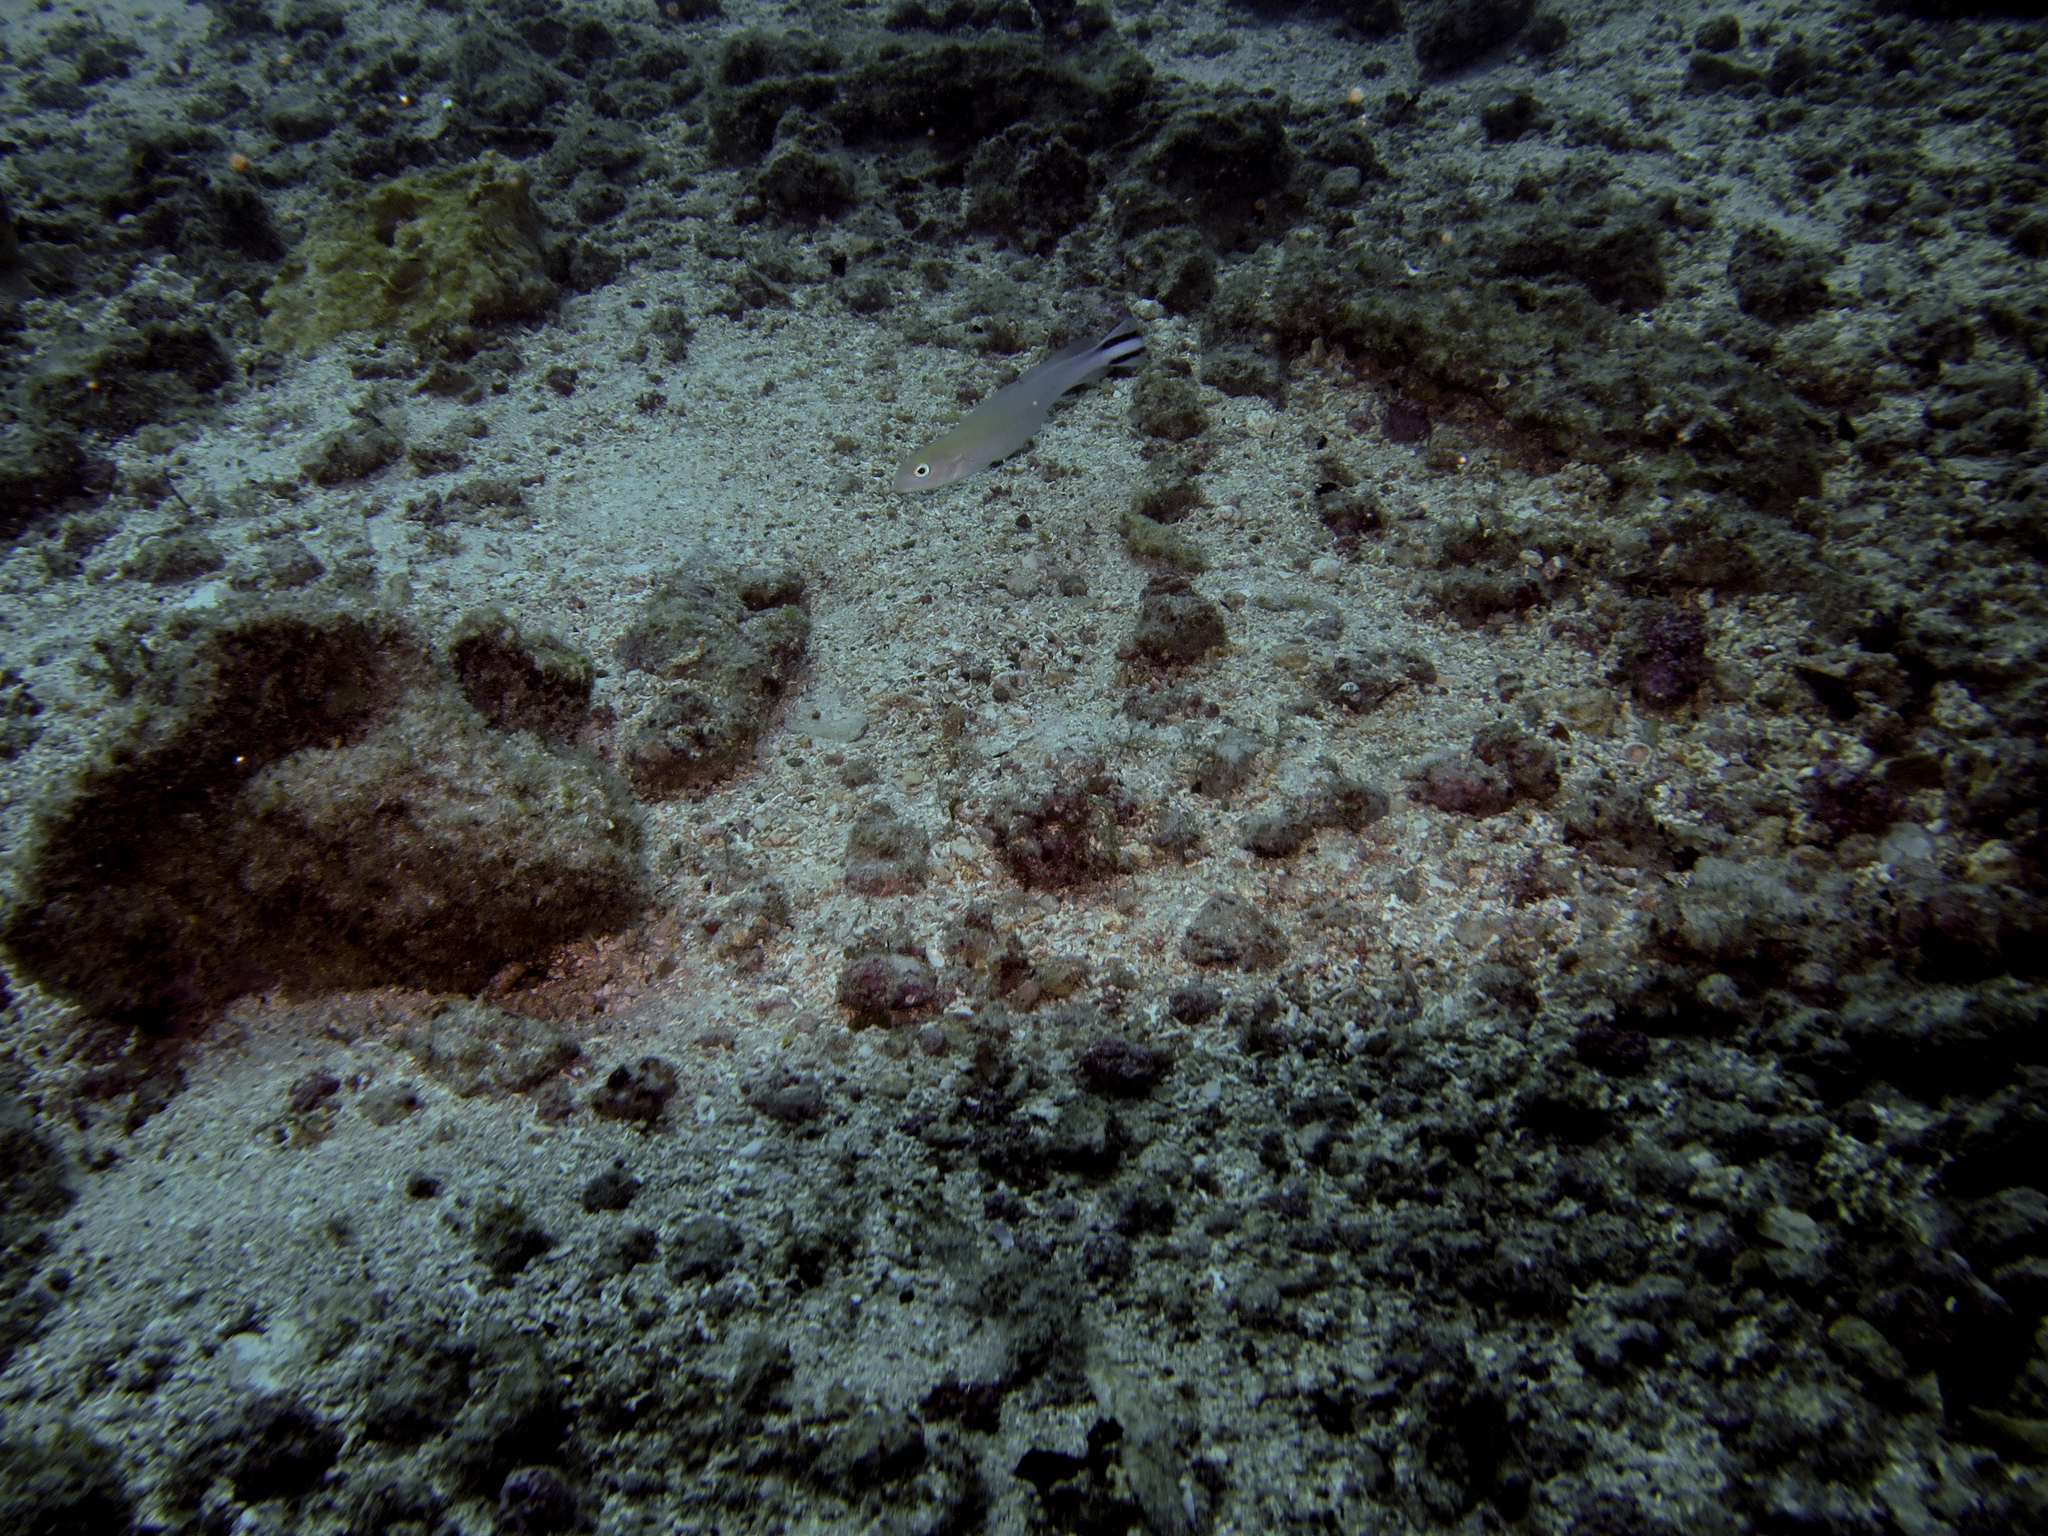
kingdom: Animalia
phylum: Chordata
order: Perciformes
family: Malacanthidae
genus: Malacanthus
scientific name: Malacanthus brevirostris
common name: Flagtail blanquillo
